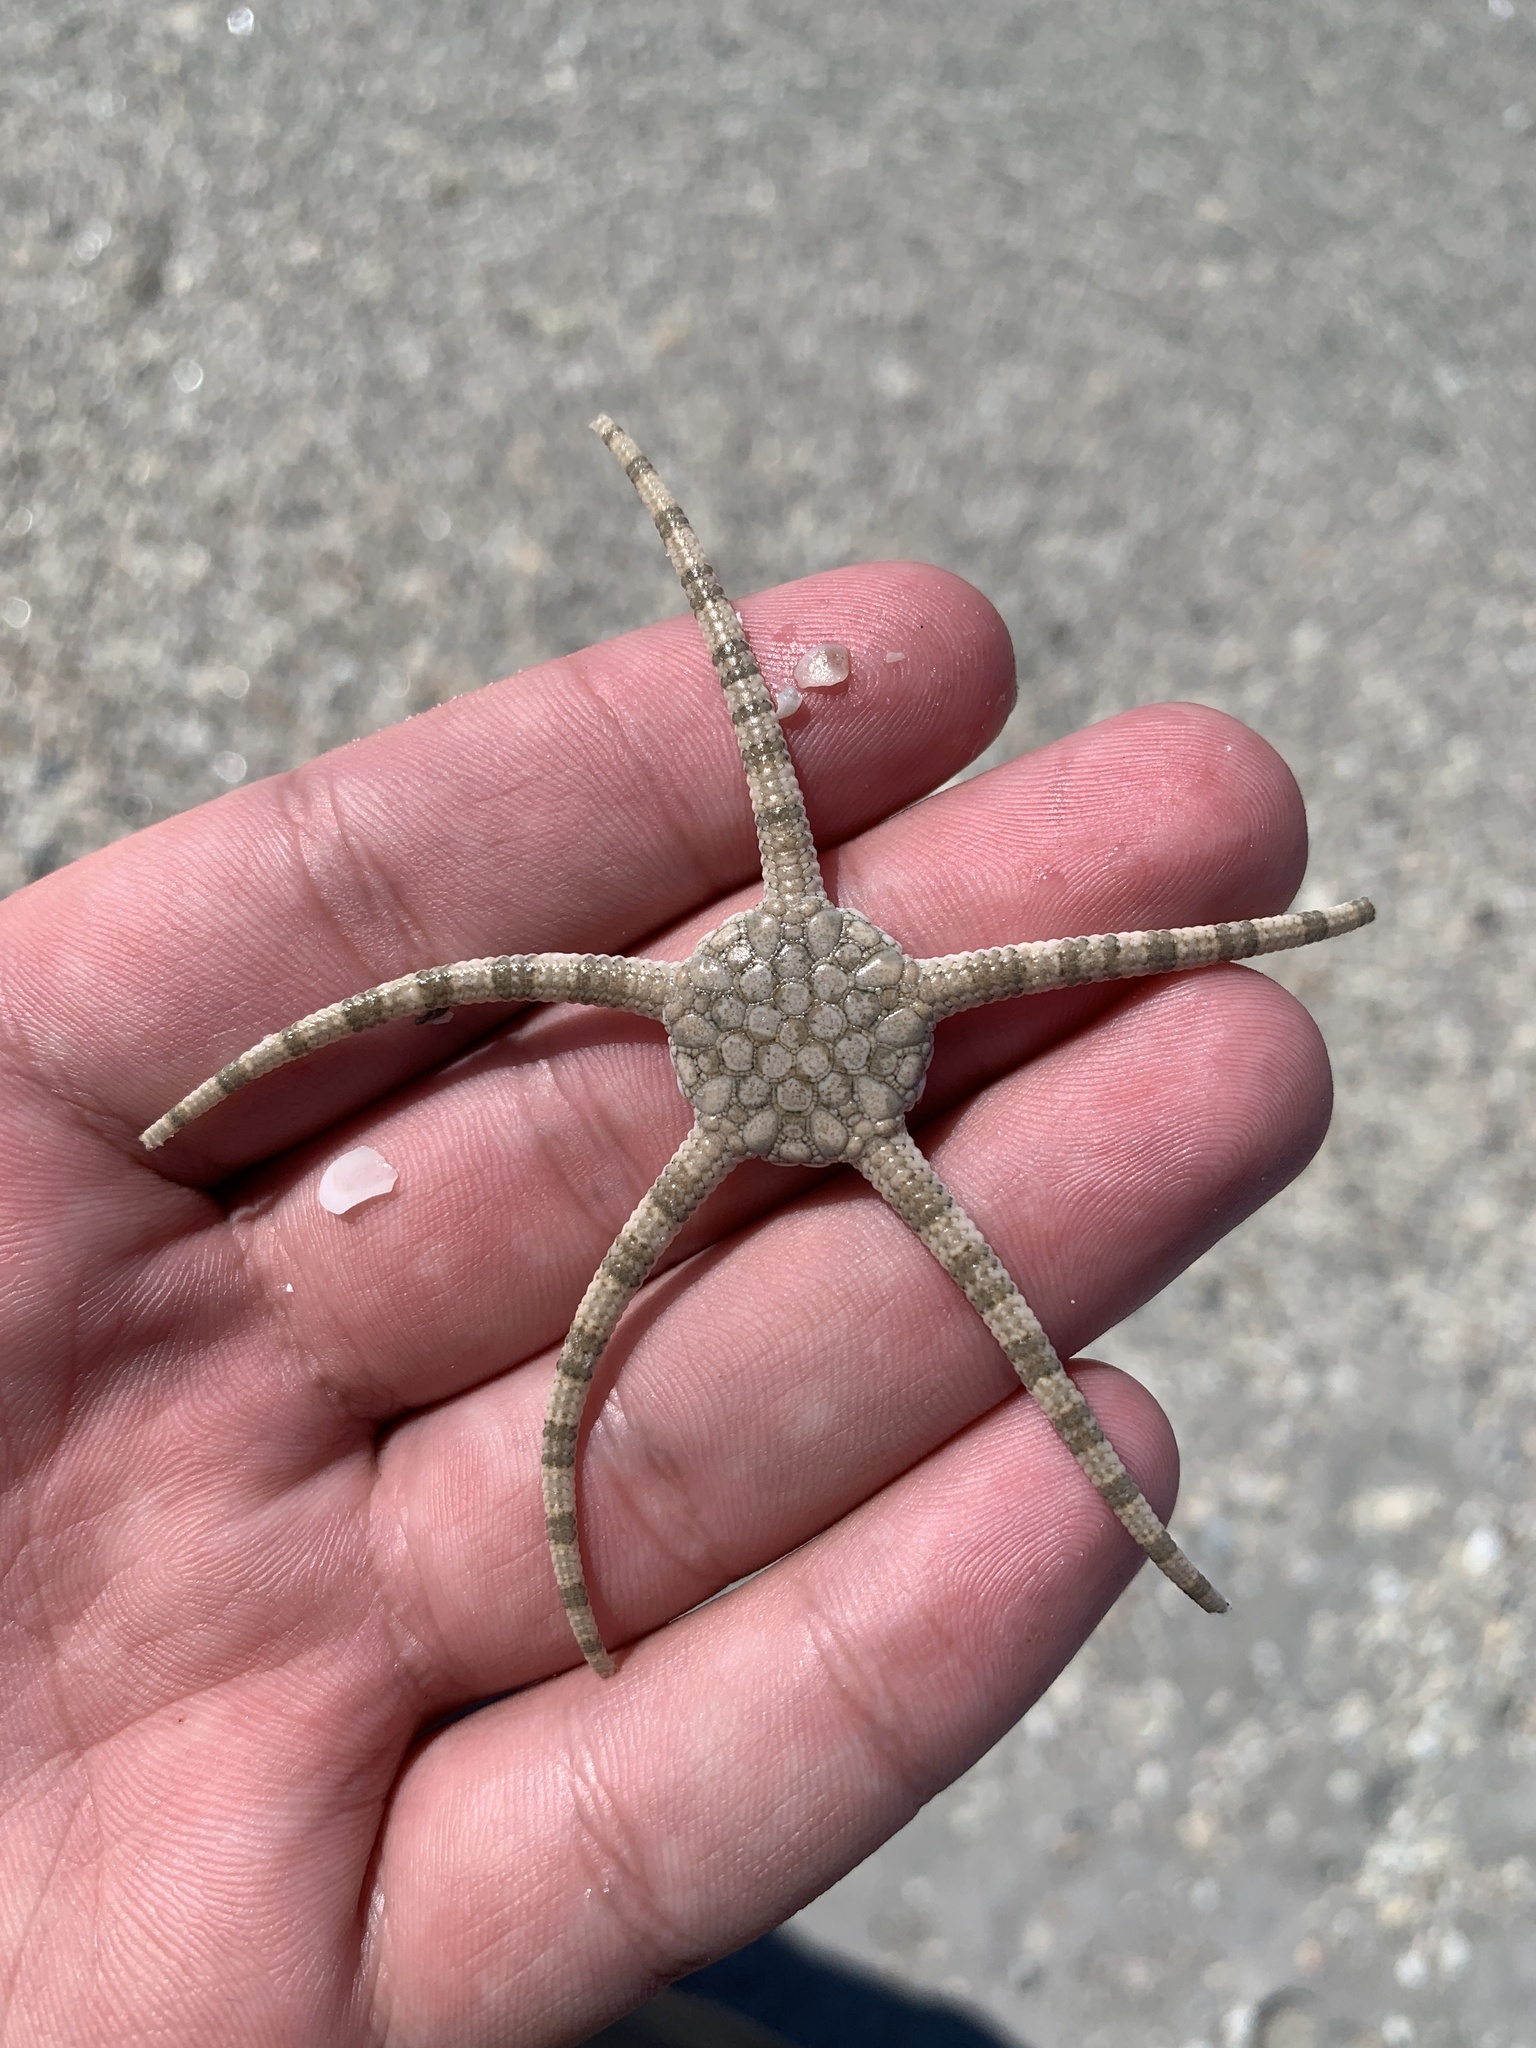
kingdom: Animalia
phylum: Echinodermata
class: Ophiuroidea
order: Amphilepidida
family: Ophiolepididae
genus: Ophiolepis
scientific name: Ophiolepis elegans
